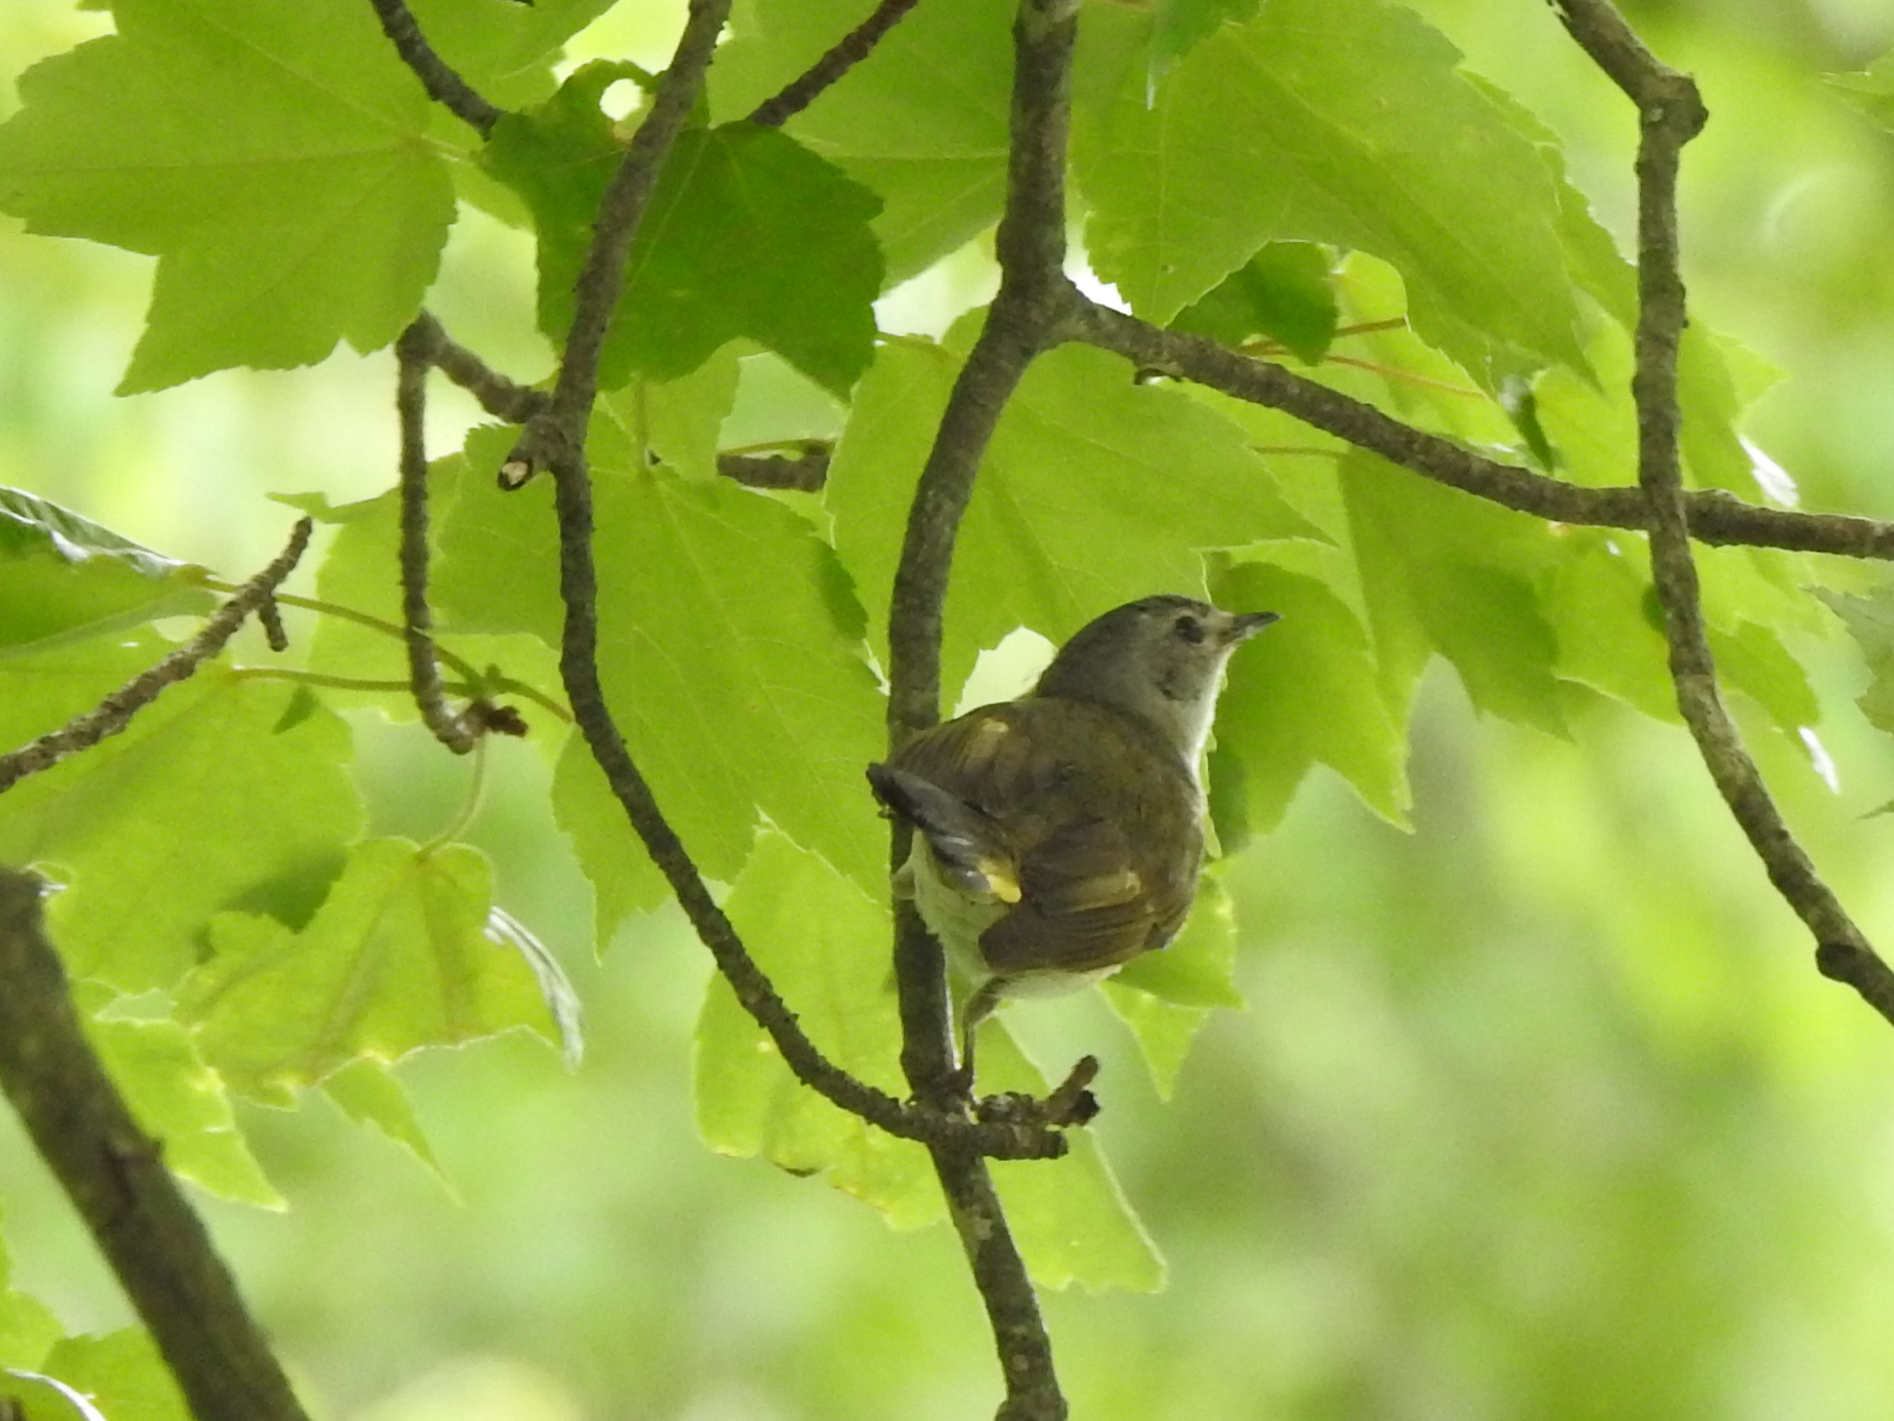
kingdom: Animalia
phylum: Chordata
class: Aves
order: Passeriformes
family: Vireonidae
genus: Vireo
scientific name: Vireo flavifrons
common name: Yellow-throated vireo
